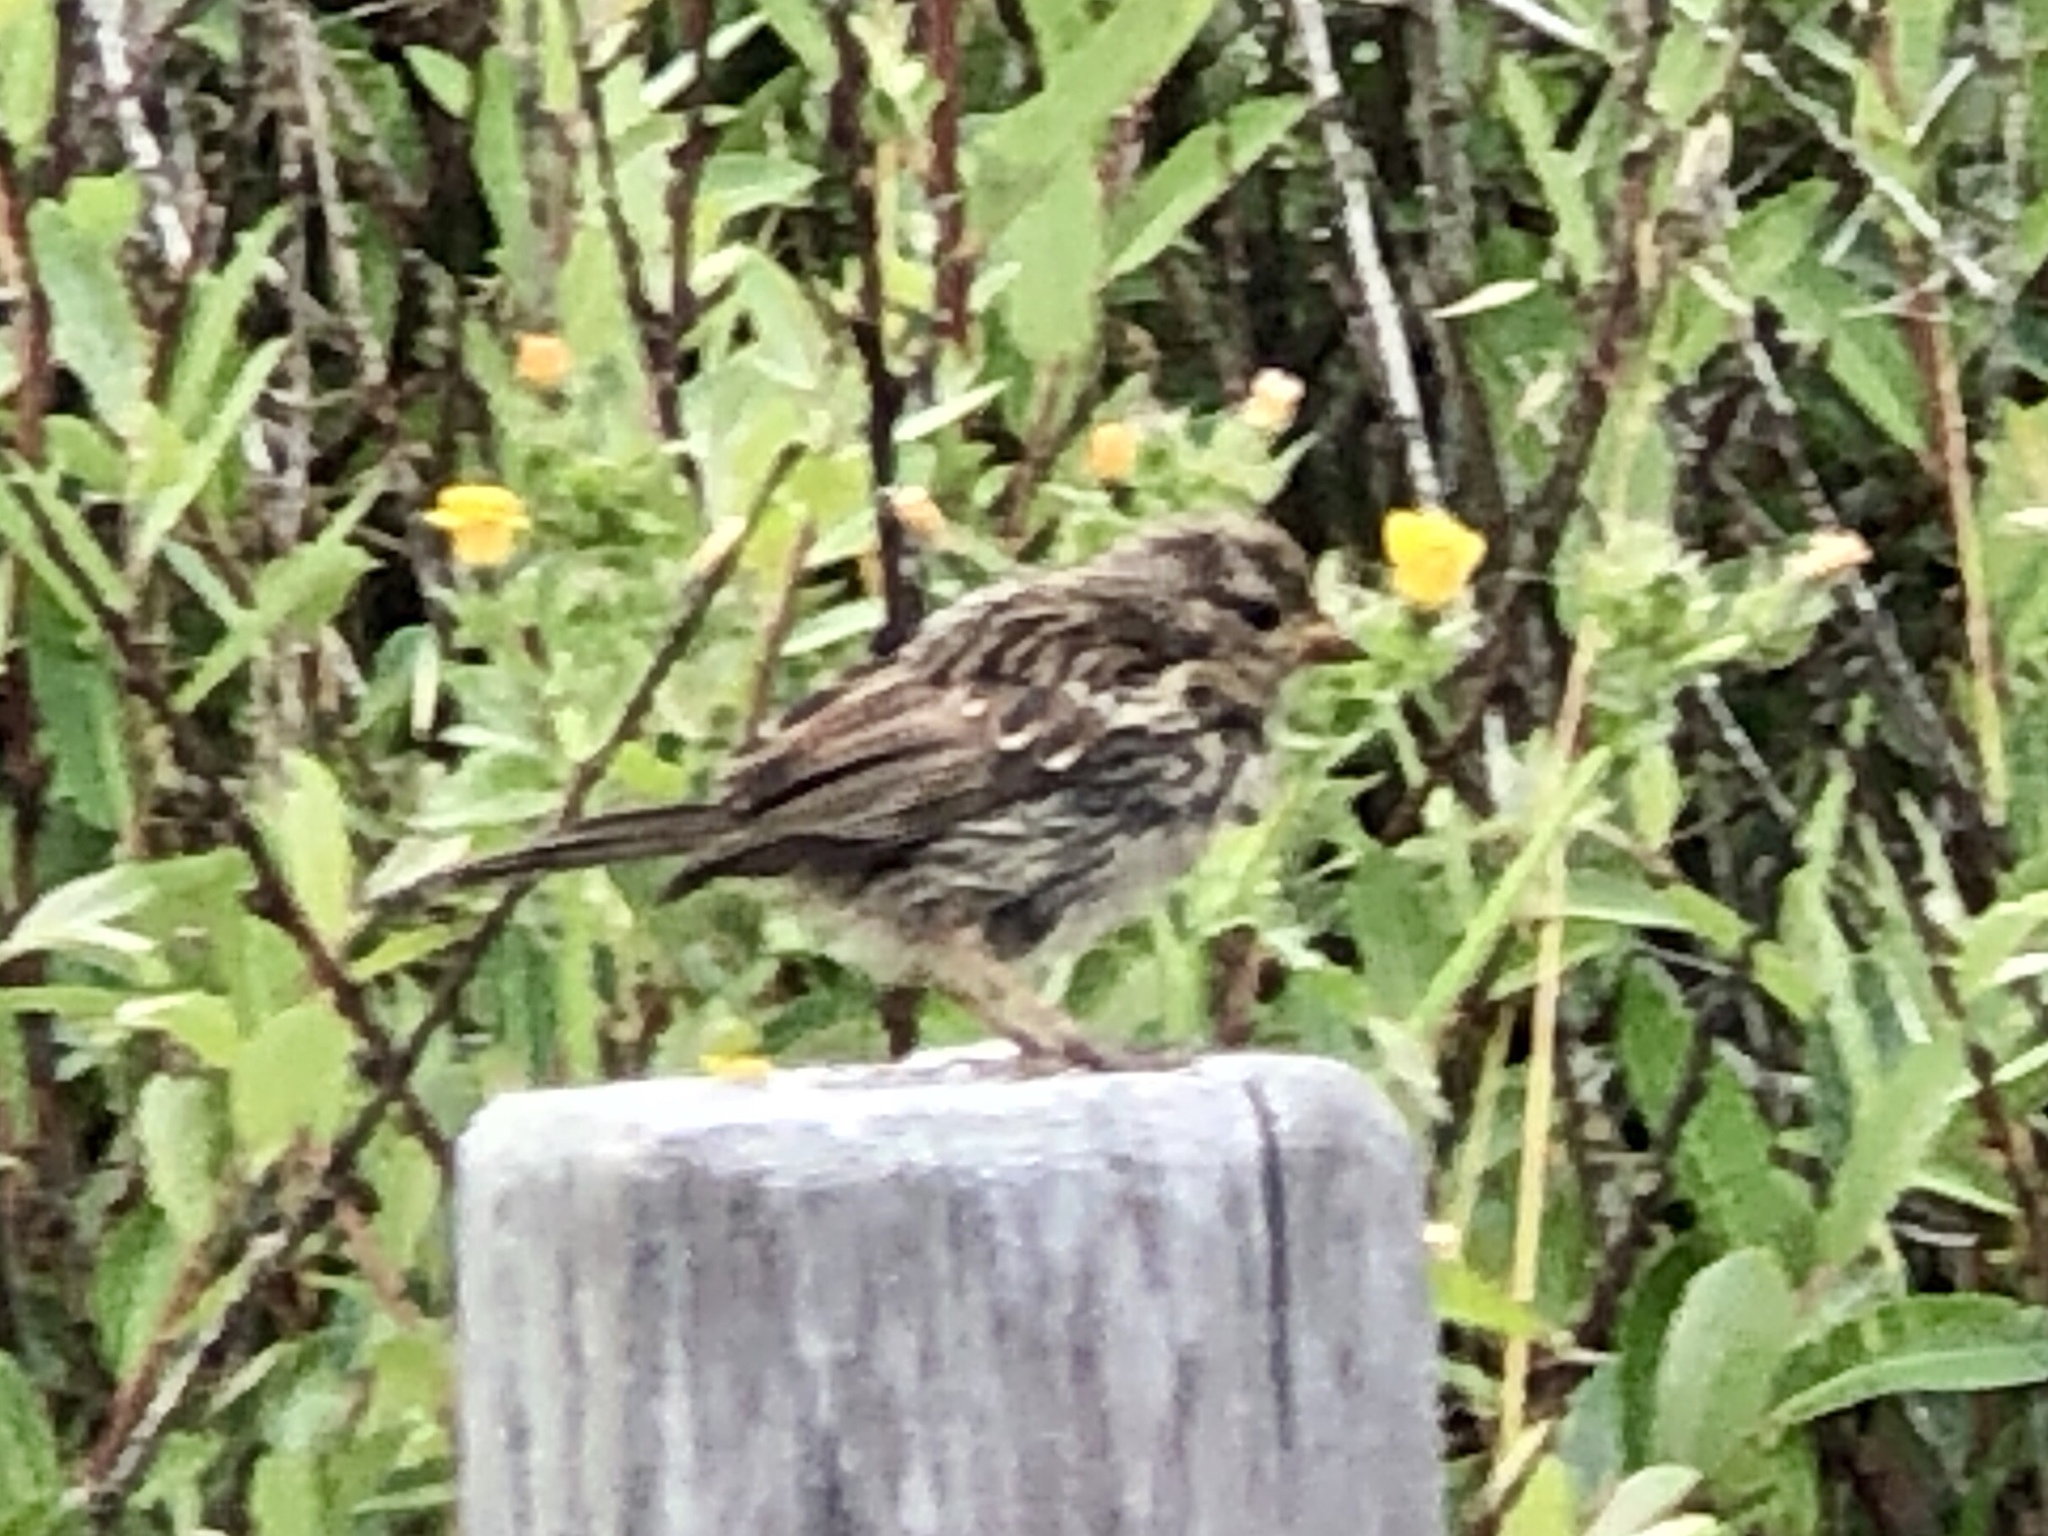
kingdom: Animalia
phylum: Chordata
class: Aves
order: Passeriformes
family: Passerellidae
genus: Zonotrichia
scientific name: Zonotrichia leucophrys
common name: White-crowned sparrow
